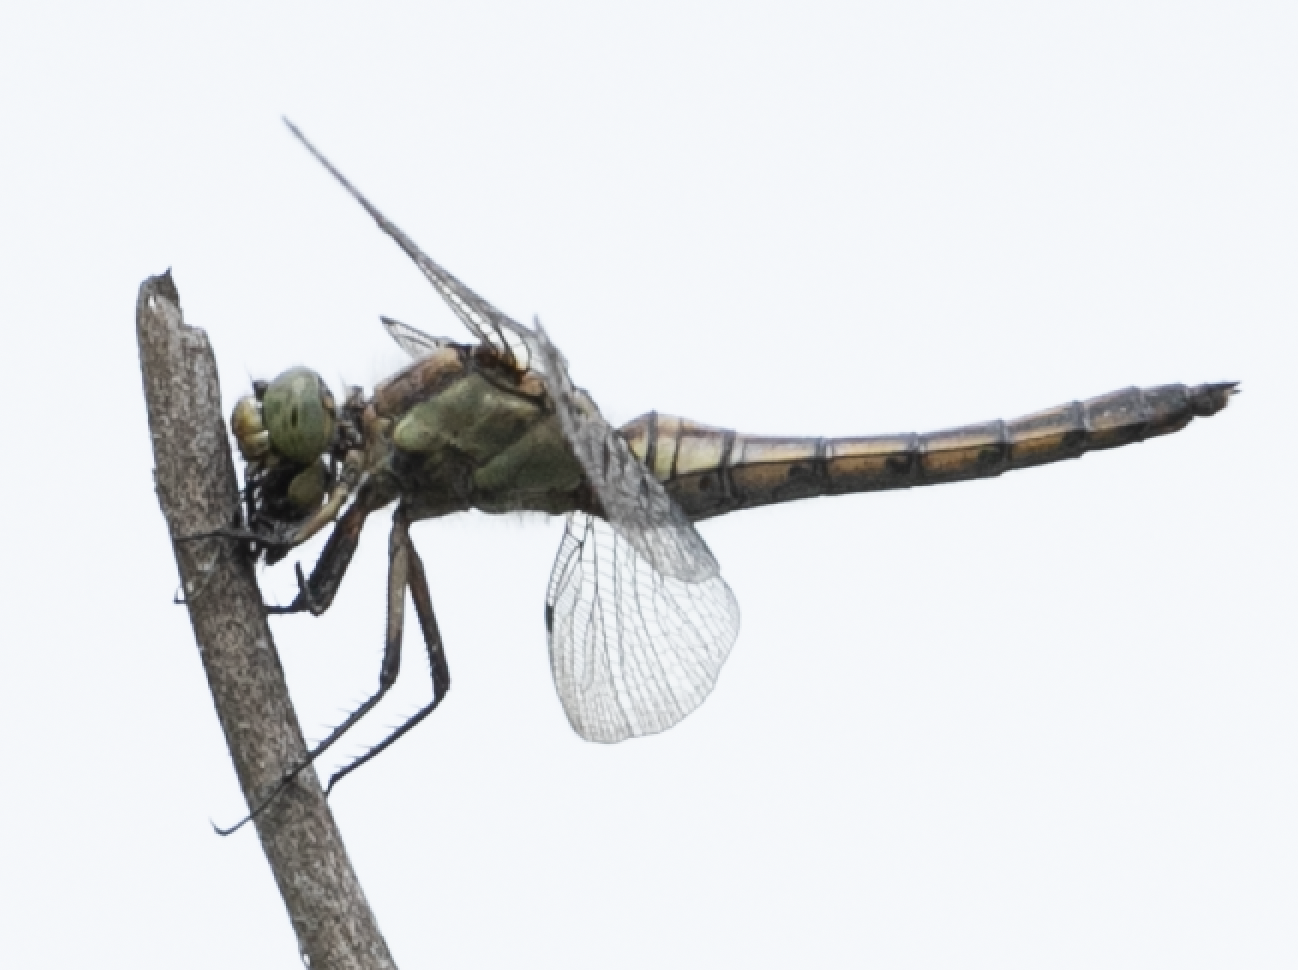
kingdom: Animalia
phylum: Arthropoda
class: Insecta
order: Odonata
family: Libellulidae
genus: Orthetrum
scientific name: Orthetrum cancellatum
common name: Black-tailed skimmer
